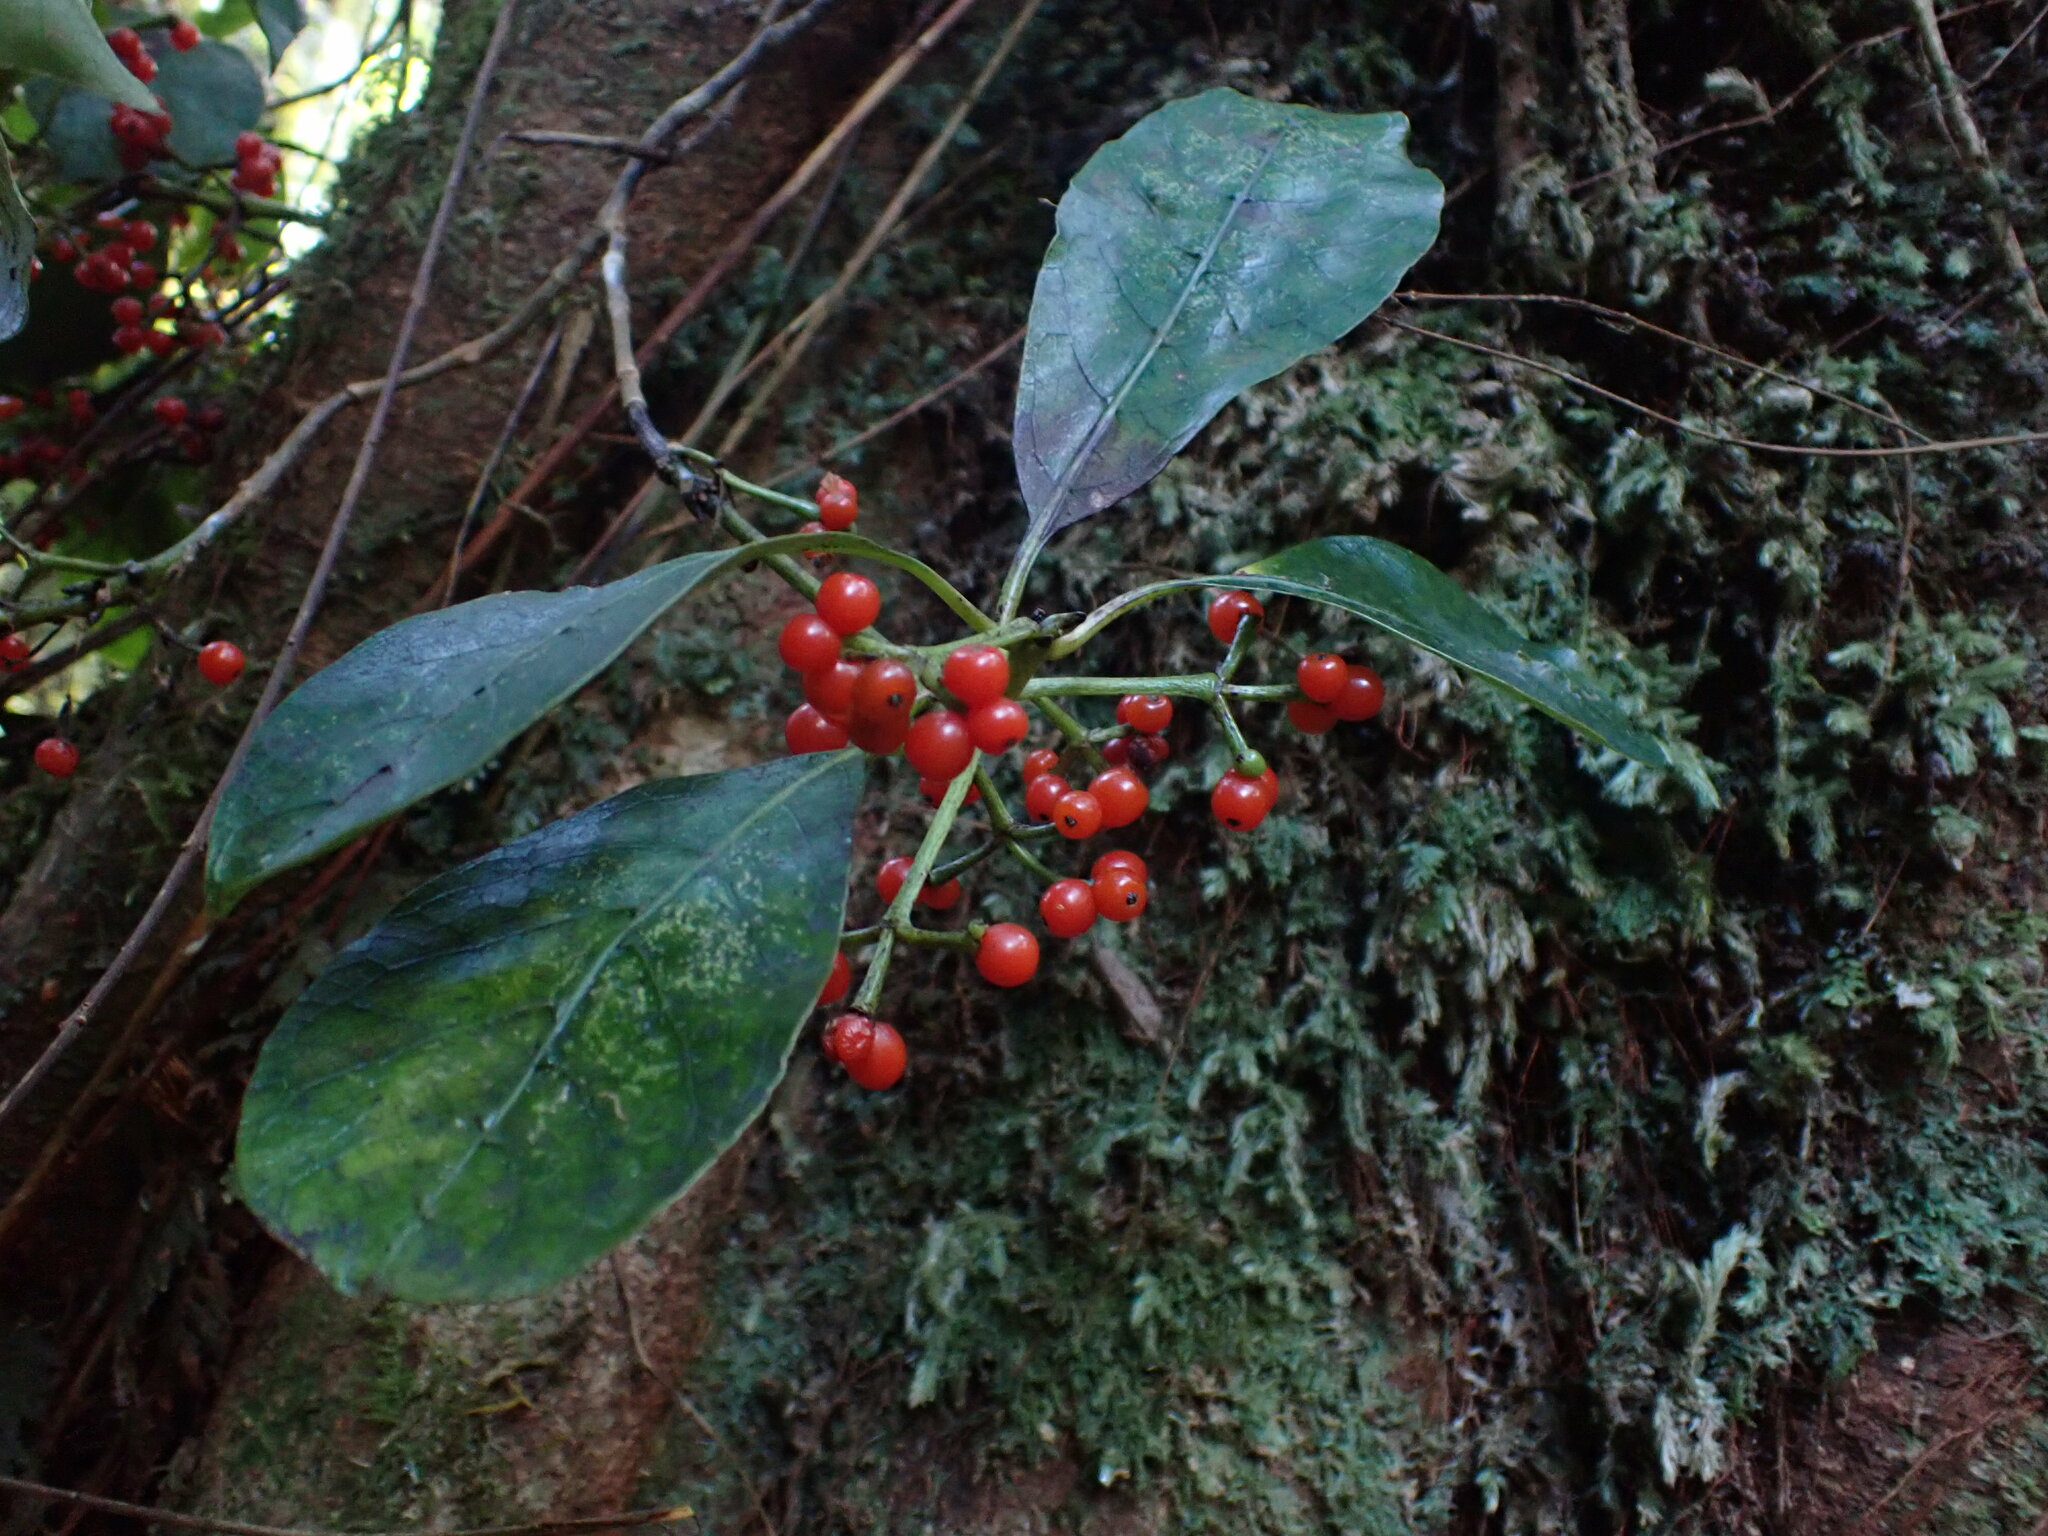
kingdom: Plantae
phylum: Tracheophyta
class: Magnoliopsida
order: Gentianales
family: Rubiaceae
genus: Coprosma
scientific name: Coprosma autumnalis
